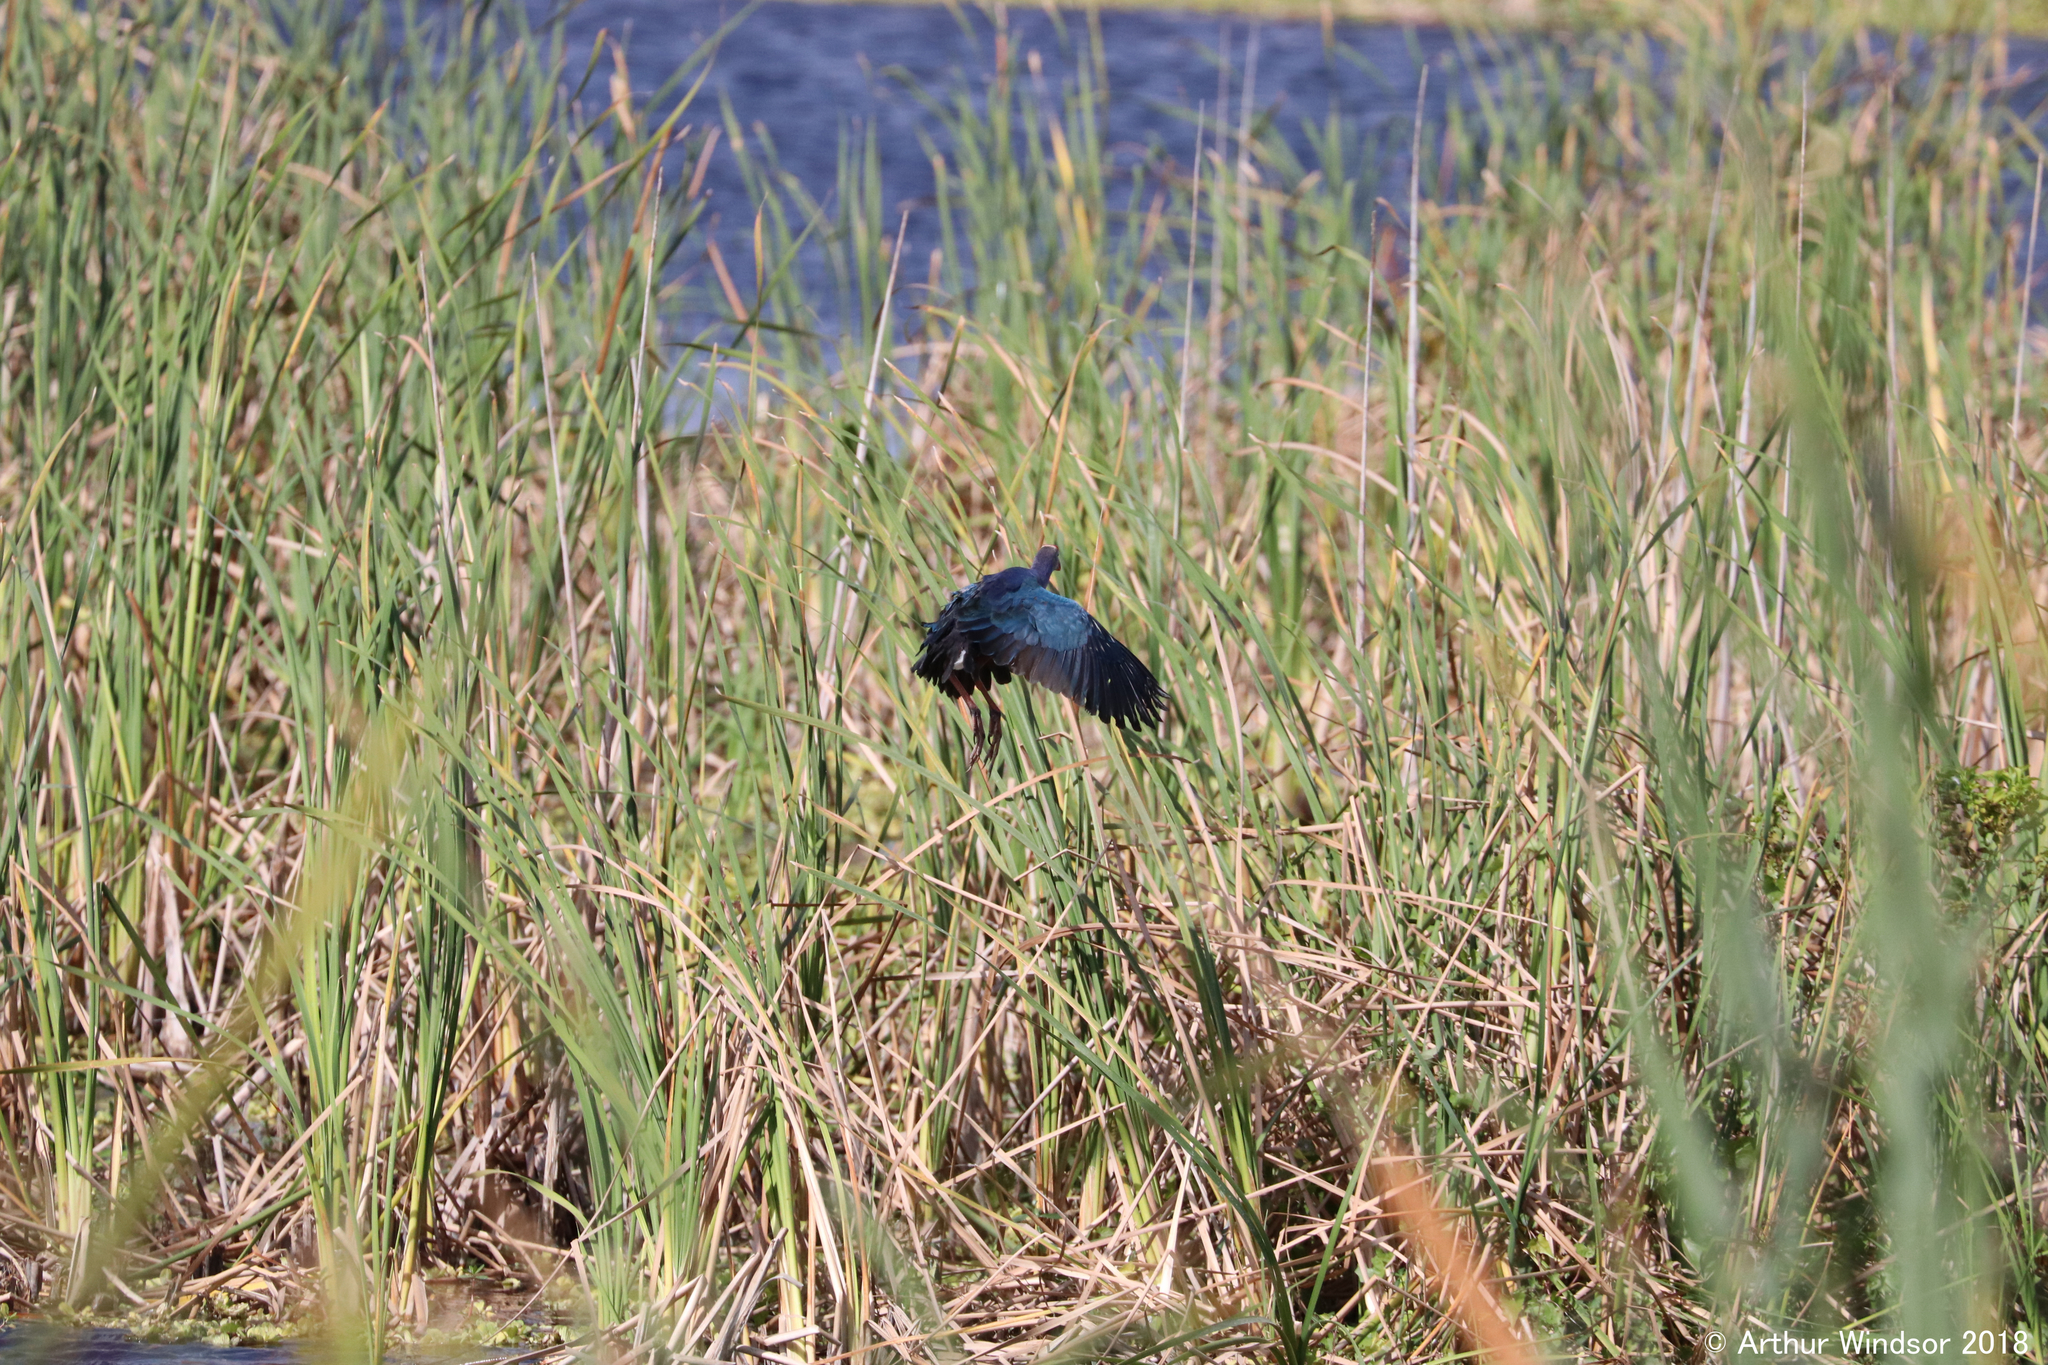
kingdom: Animalia
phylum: Chordata
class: Aves
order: Gruiformes
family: Rallidae
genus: Porphyrio
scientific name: Porphyrio martinica
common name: Purple gallinule
